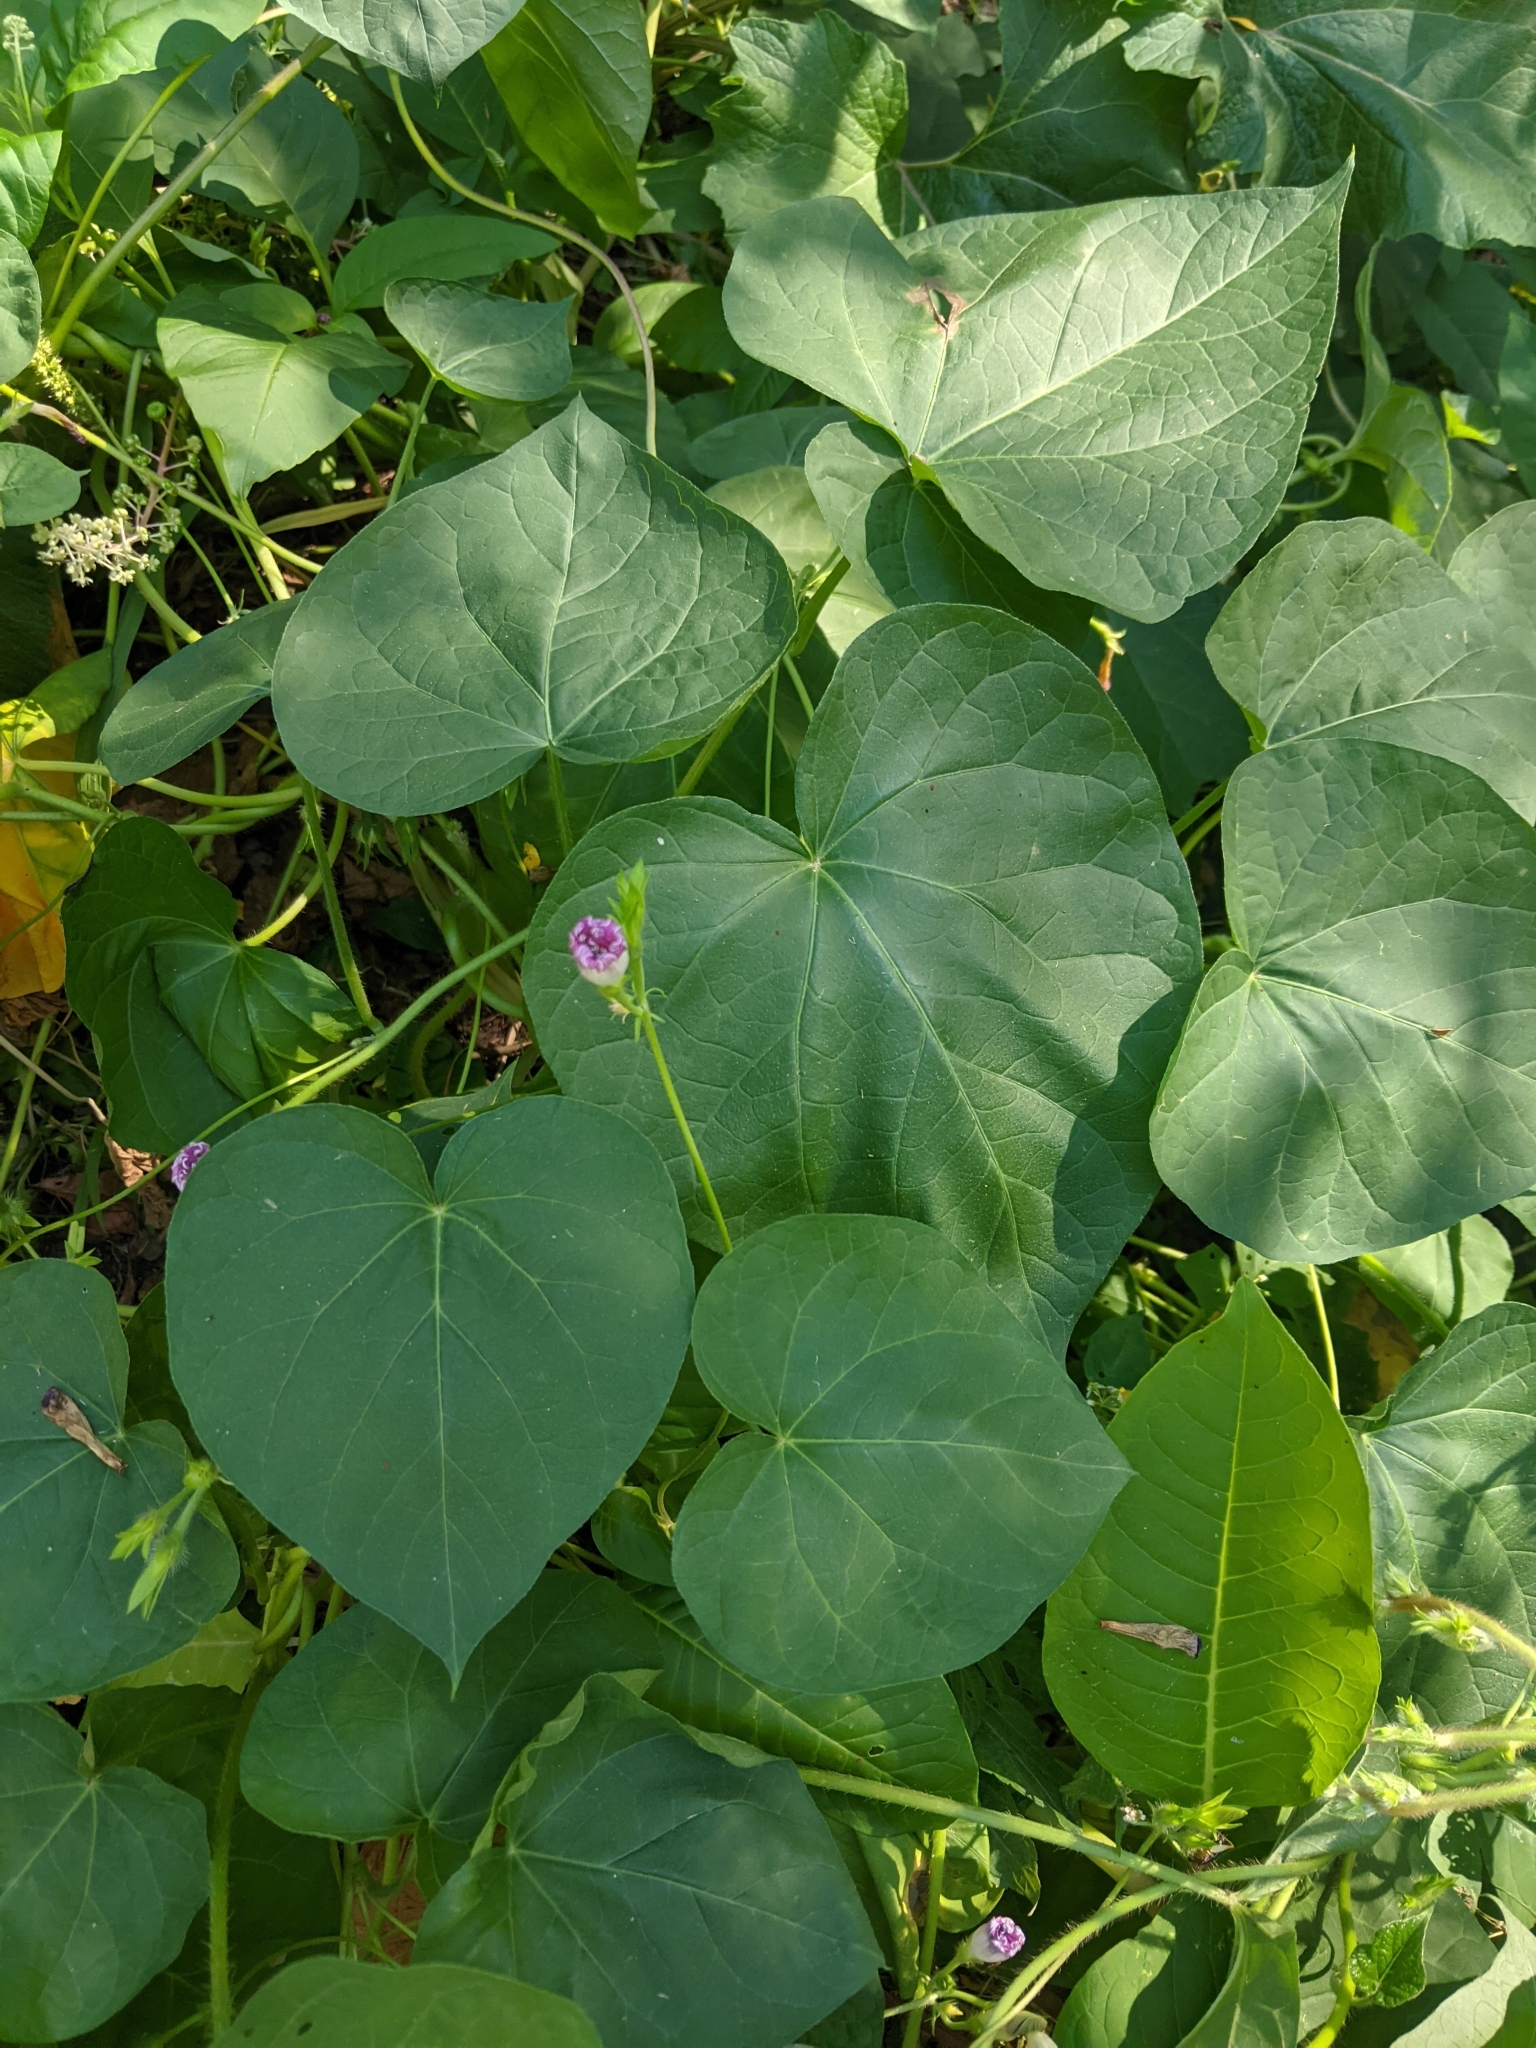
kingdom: Plantae
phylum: Tracheophyta
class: Magnoliopsida
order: Solanales
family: Convolvulaceae
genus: Ipomoea
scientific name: Ipomoea purpurea
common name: Common morning-glory
